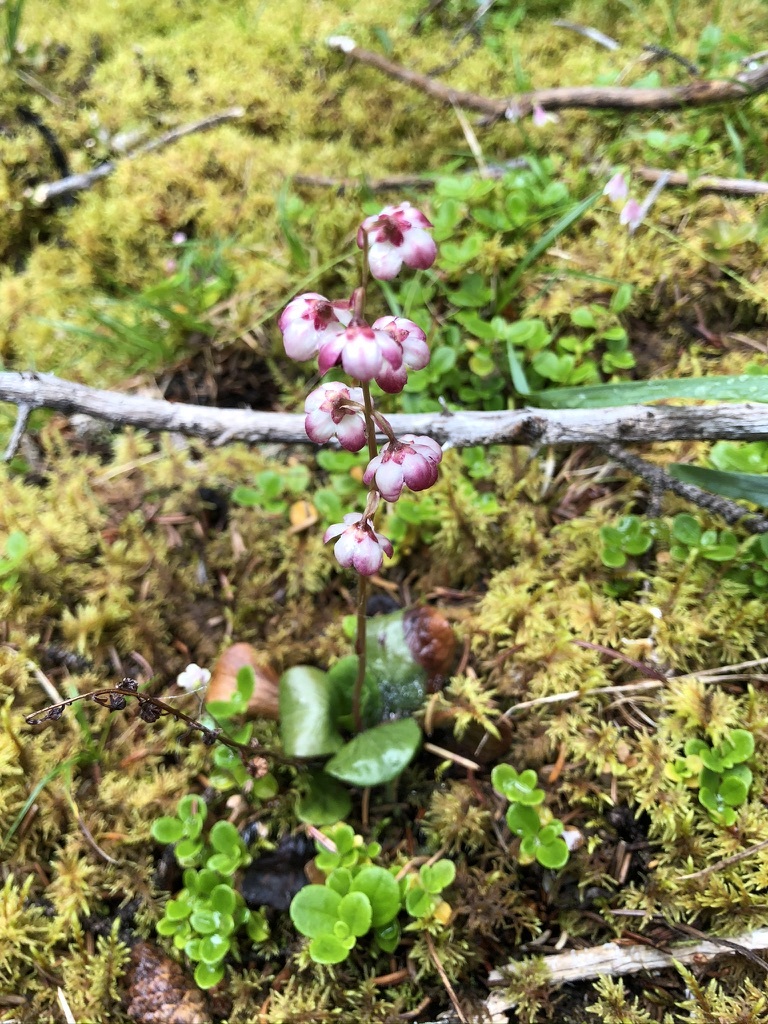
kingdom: Plantae
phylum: Tracheophyta
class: Magnoliopsida
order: Ericales
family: Ericaceae
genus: Pyrola
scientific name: Pyrola asarifolia
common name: Bog wintergreen
